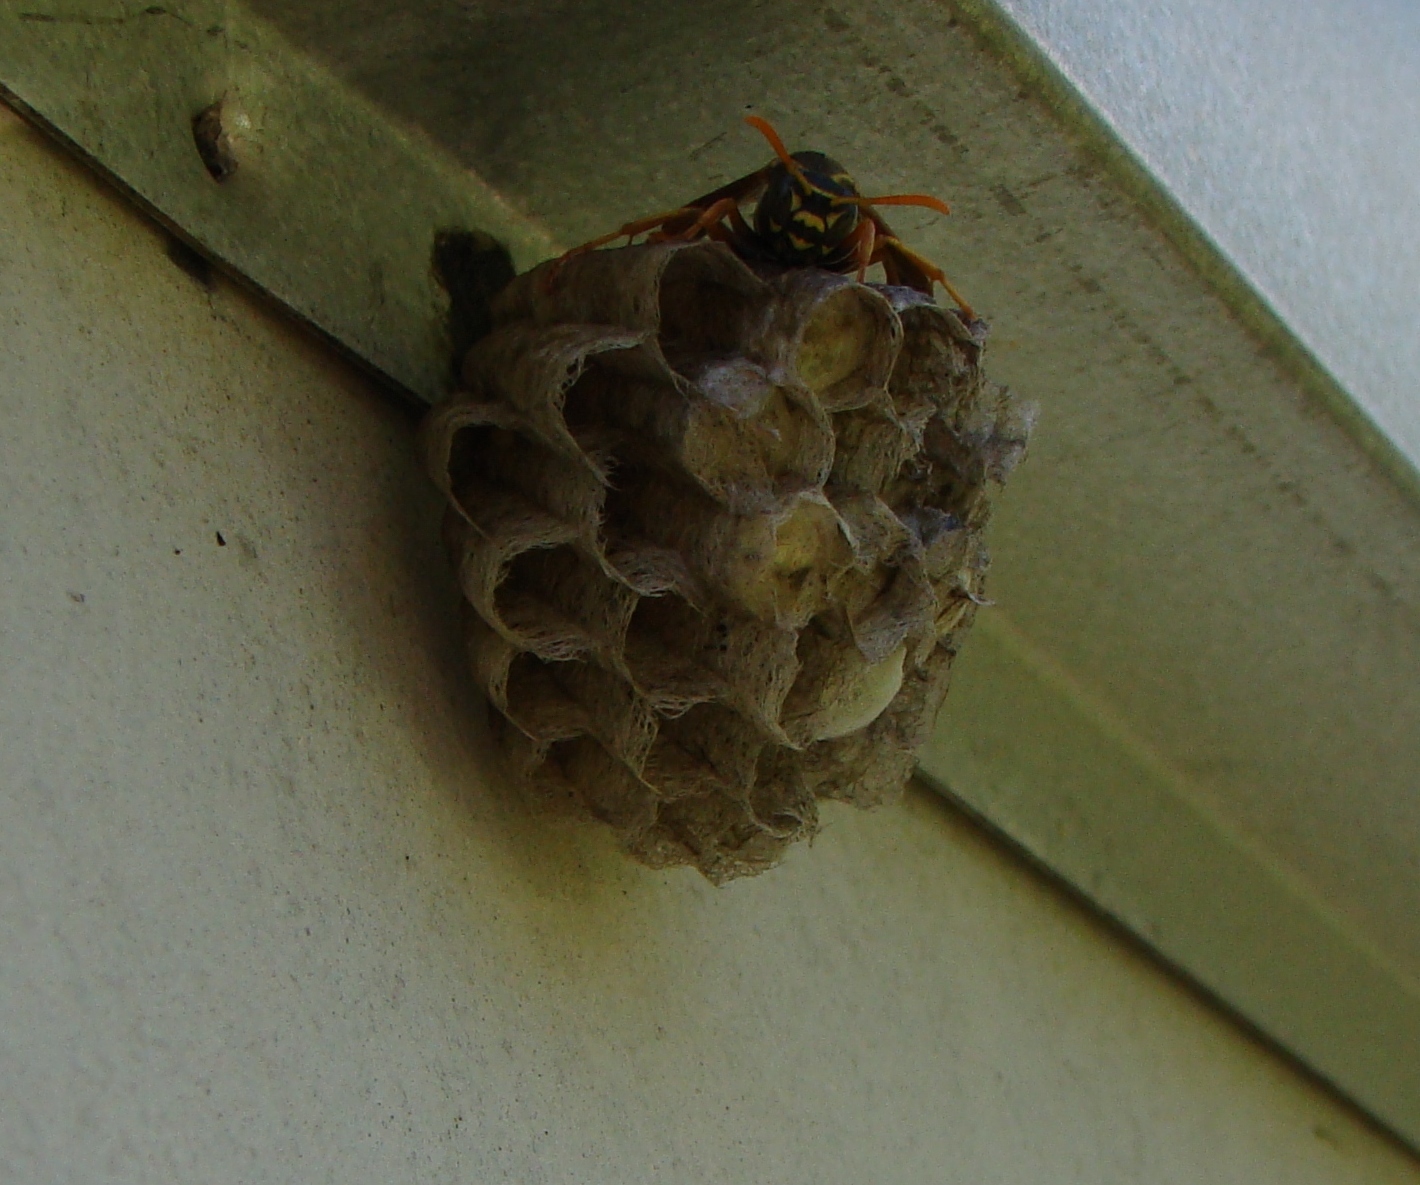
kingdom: Animalia
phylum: Arthropoda
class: Insecta
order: Hymenoptera
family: Eumenidae
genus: Polistes
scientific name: Polistes chinensis
